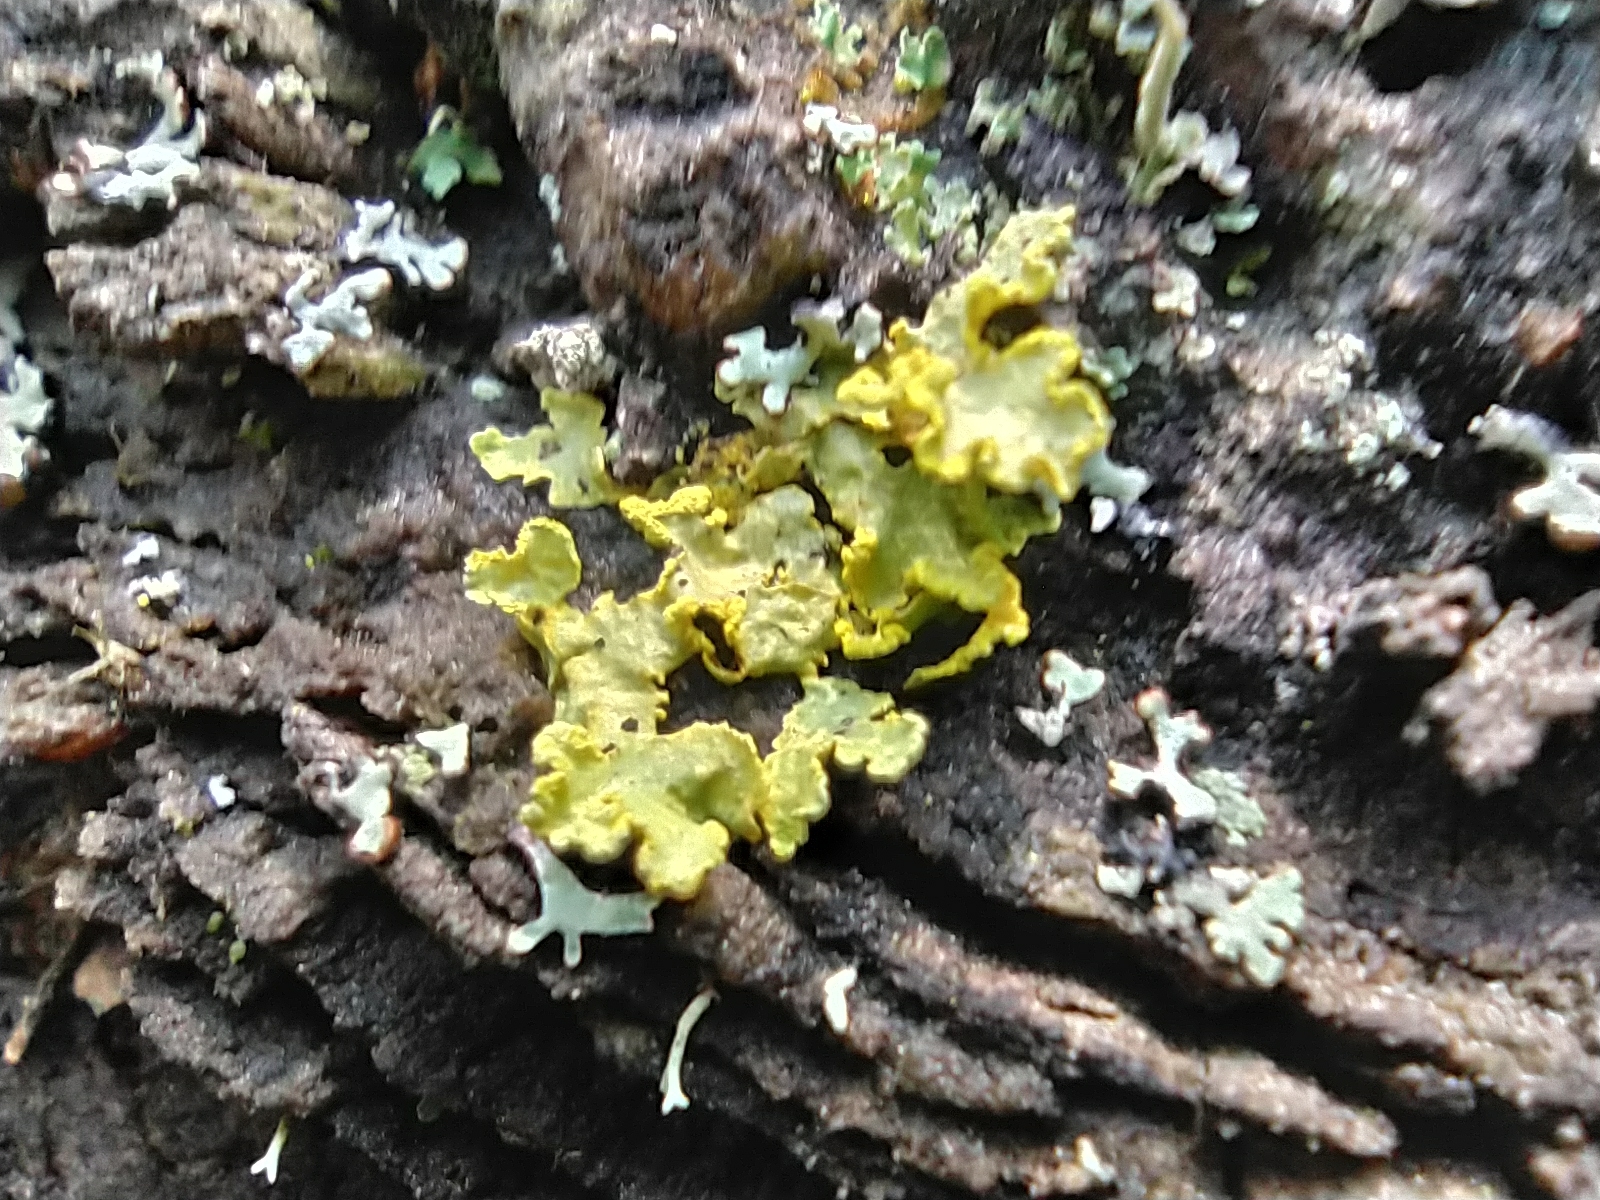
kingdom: Fungi
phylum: Ascomycota
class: Lecanoromycetes
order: Lecanorales
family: Parmeliaceae
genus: Vulpicida
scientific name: Vulpicida pinastri
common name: Powdered sunshine lichen
